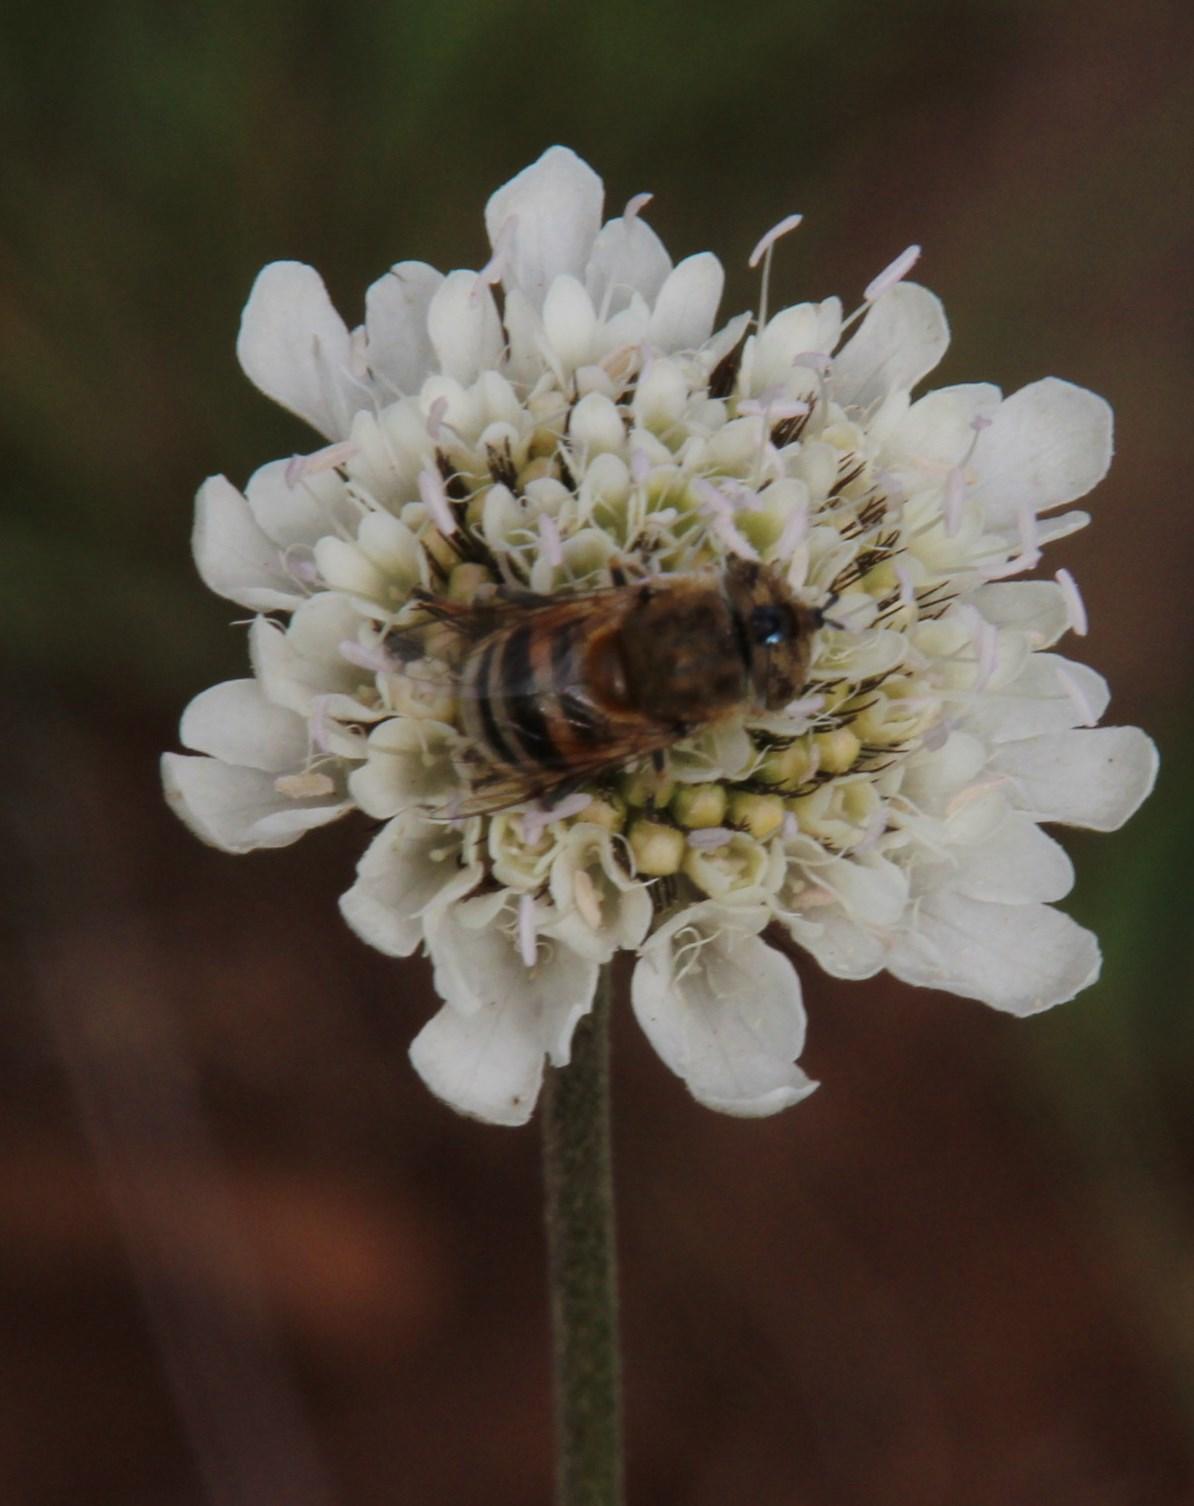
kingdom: Plantae
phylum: Tracheophyta
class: Magnoliopsida
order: Dipsacales
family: Caprifoliaceae
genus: Scabiosa
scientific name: Scabiosa columbaria
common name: Small scabious
